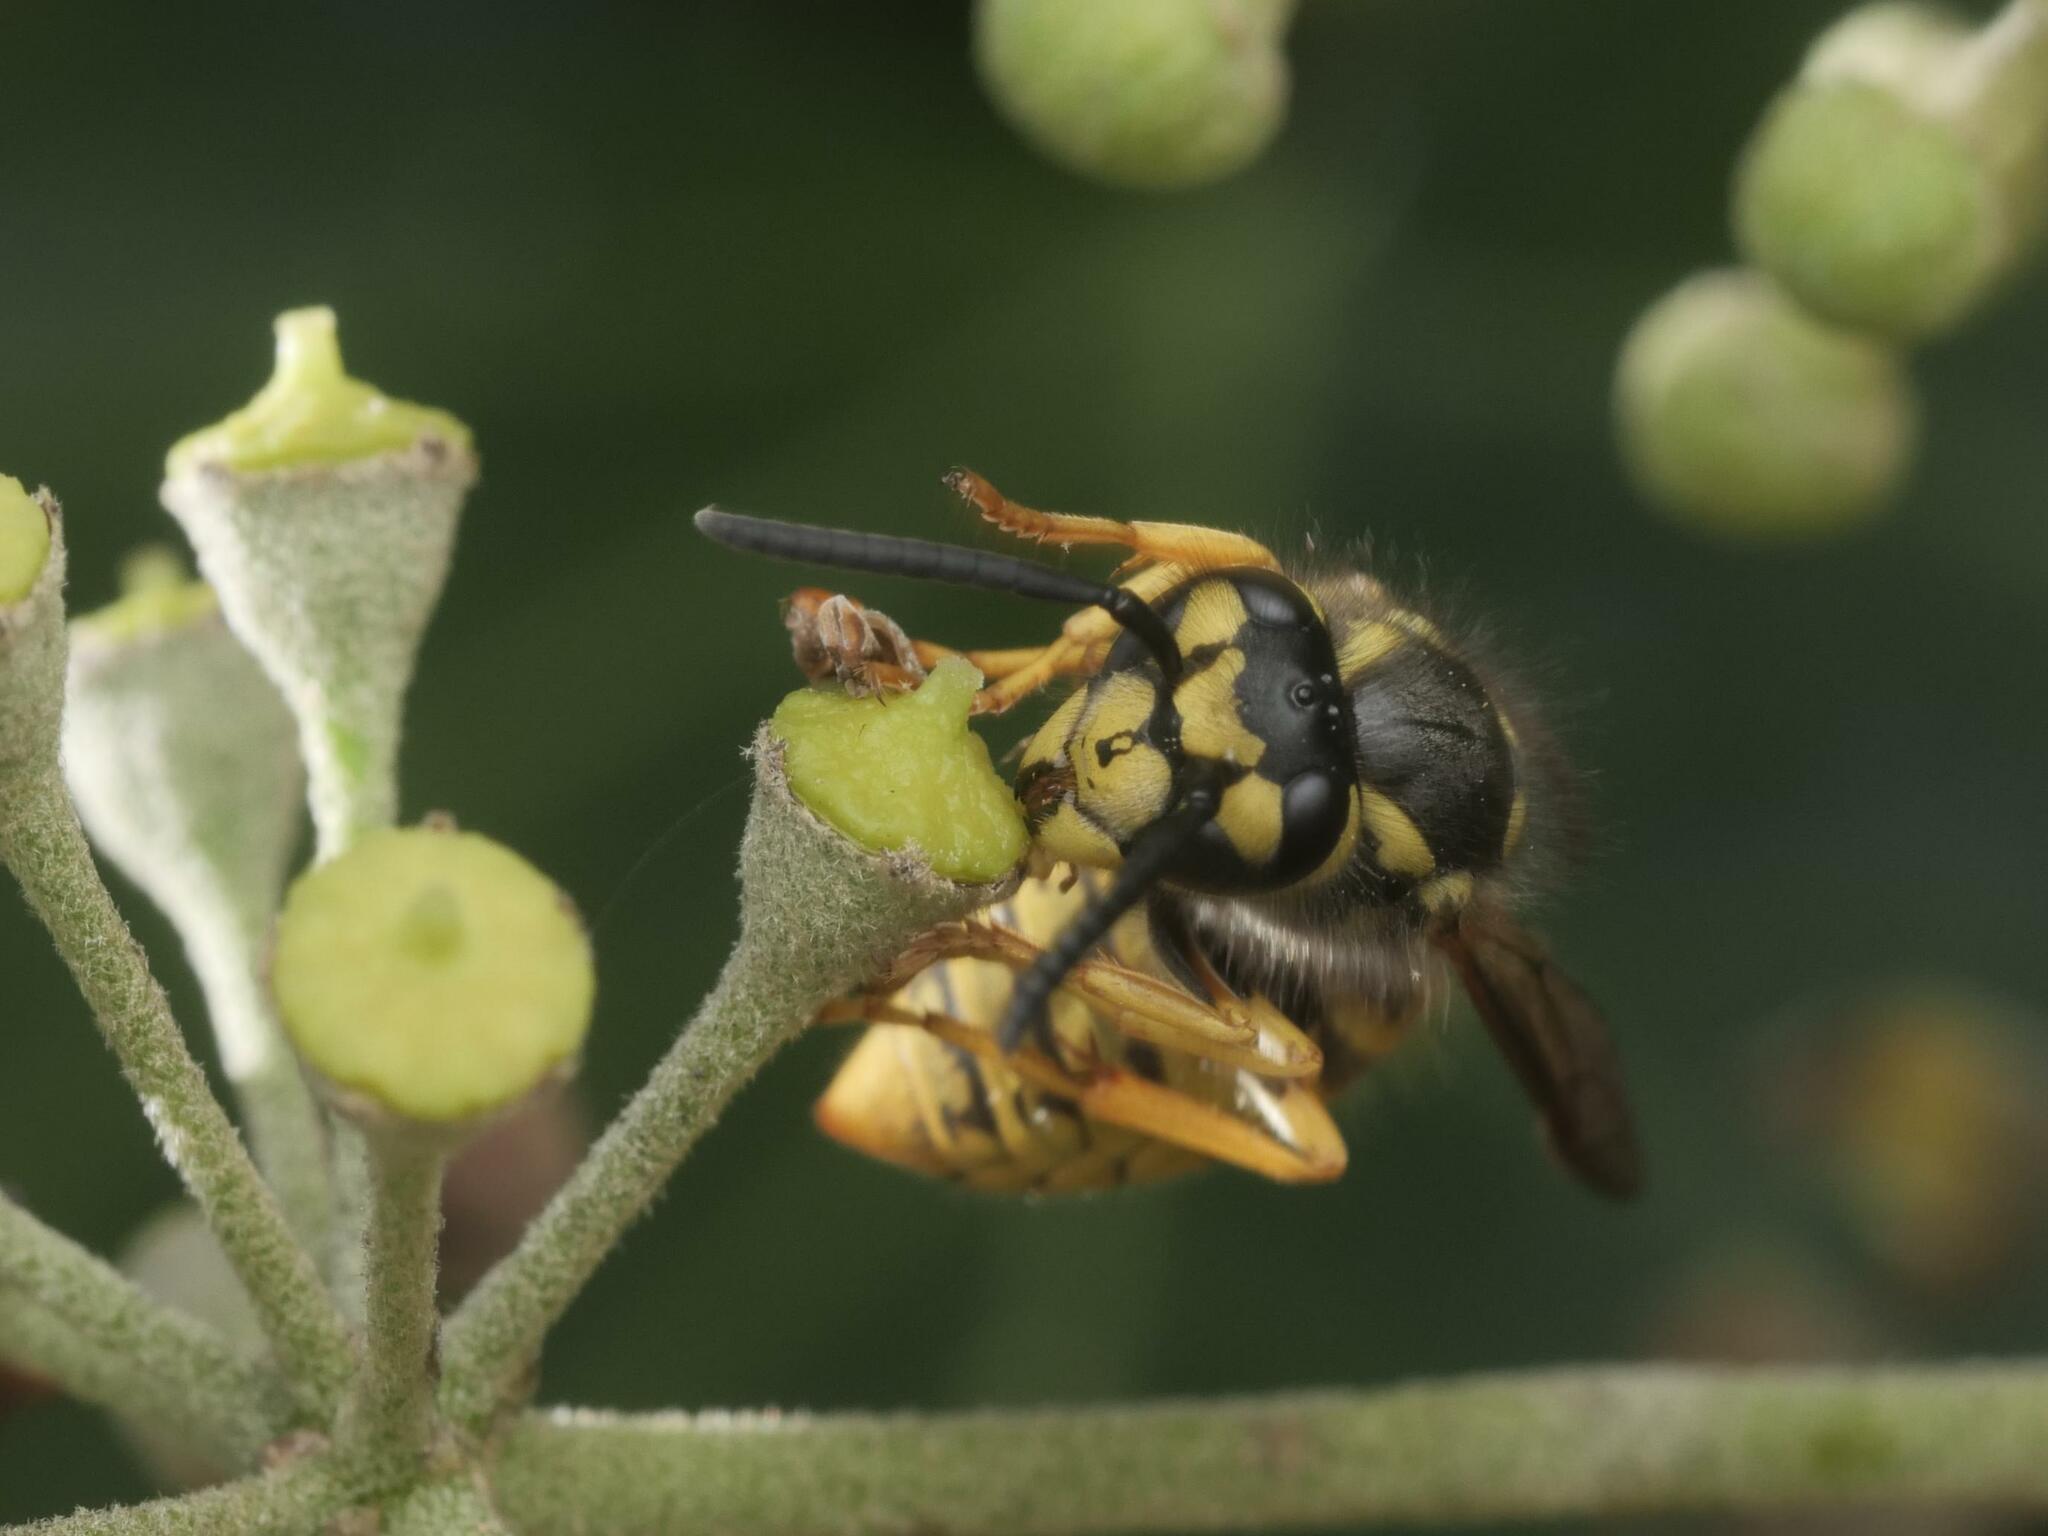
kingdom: Animalia
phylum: Arthropoda
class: Insecta
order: Hymenoptera
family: Vespidae
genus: Vespula
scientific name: Vespula germanica
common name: German wasp
